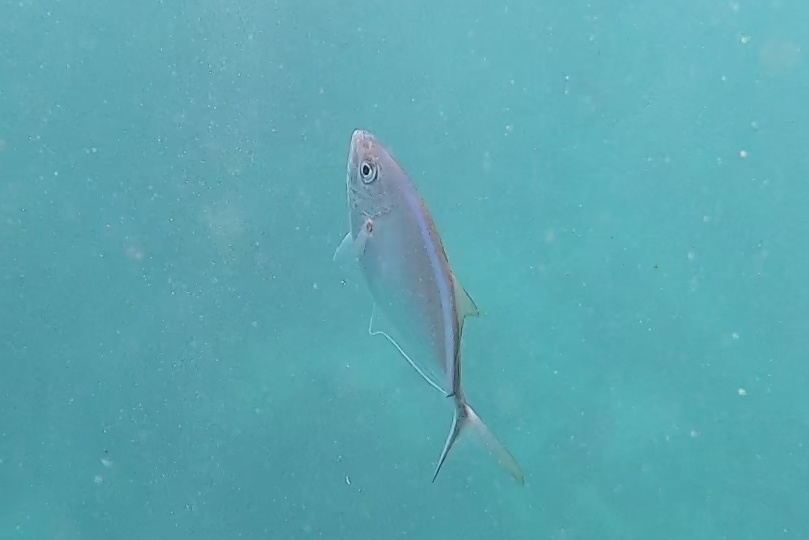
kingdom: Animalia
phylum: Chordata
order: Perciformes
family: Carangidae
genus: Caranx
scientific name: Caranx ruber
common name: Bar jack
